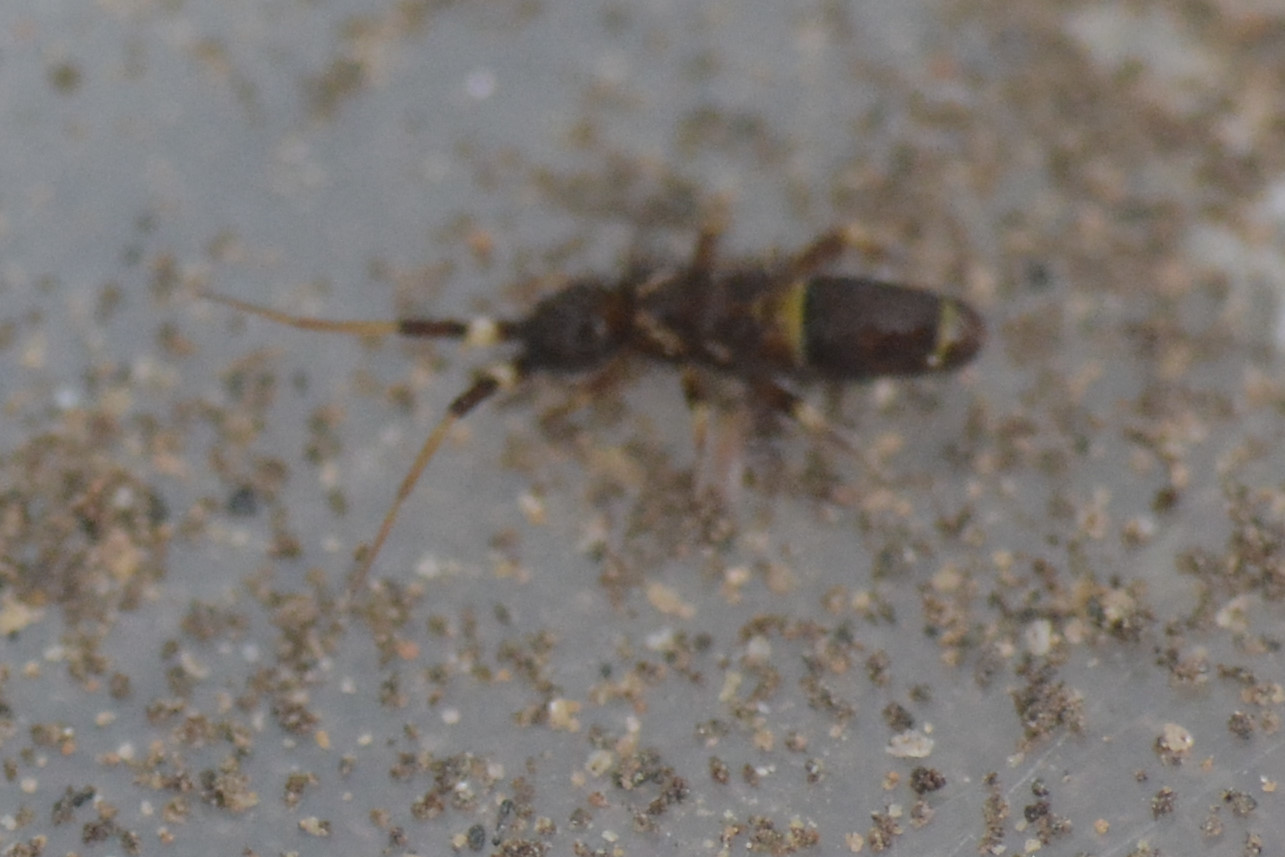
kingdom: Animalia
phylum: Arthropoda
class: Collembola
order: Entomobryomorpha
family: Orchesellidae
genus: Orchesella
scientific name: Orchesella cincta
